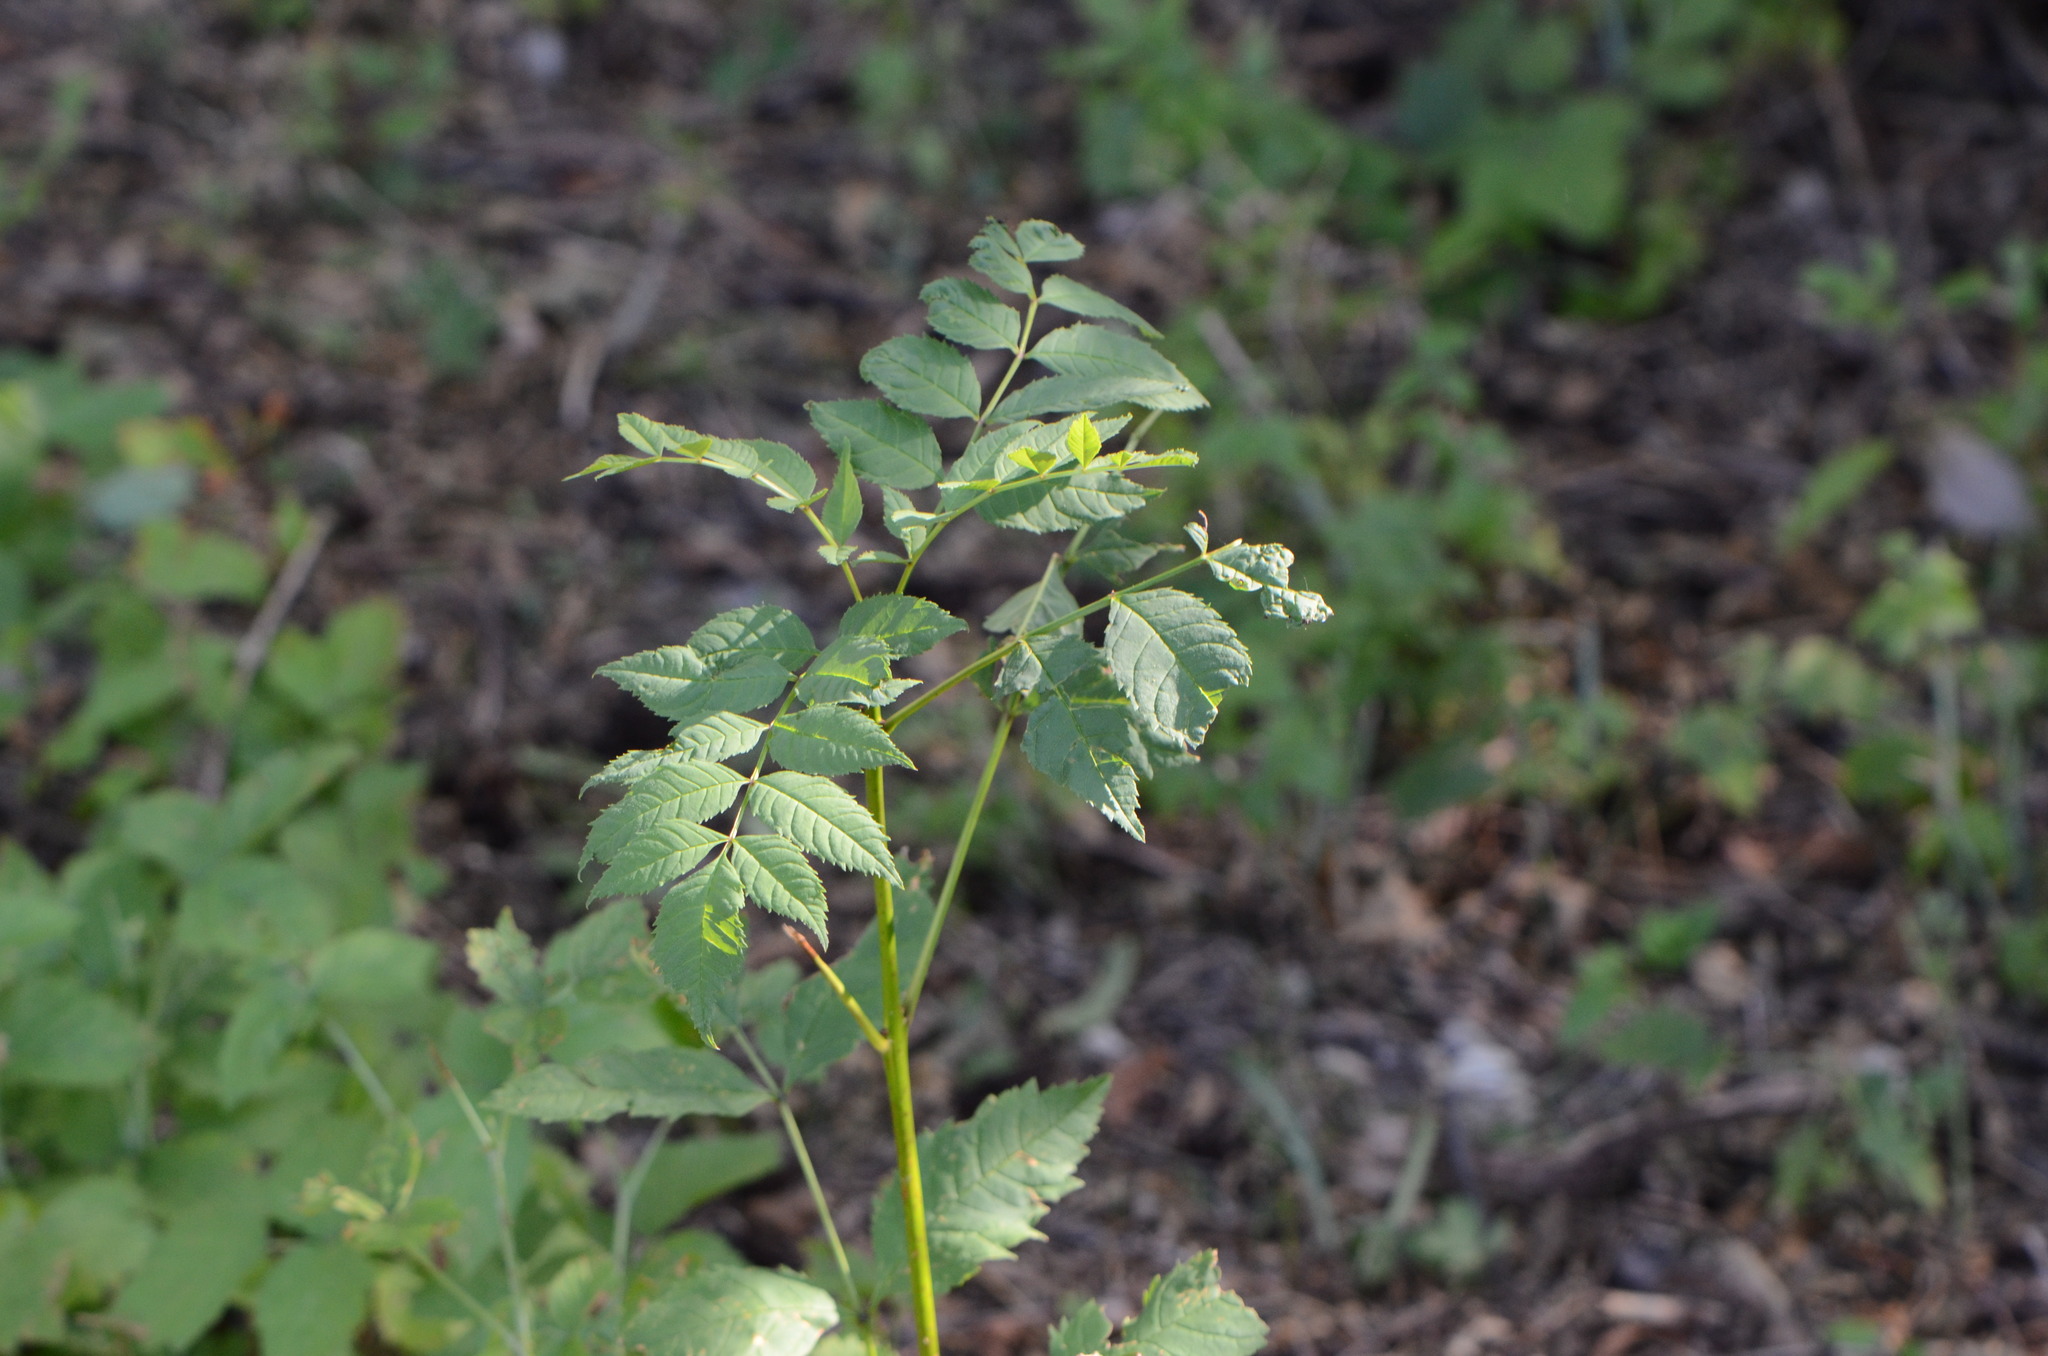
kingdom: Plantae
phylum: Tracheophyta
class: Magnoliopsida
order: Lamiales
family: Oleaceae
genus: Fraxinus
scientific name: Fraxinus excelsior
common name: European ash
